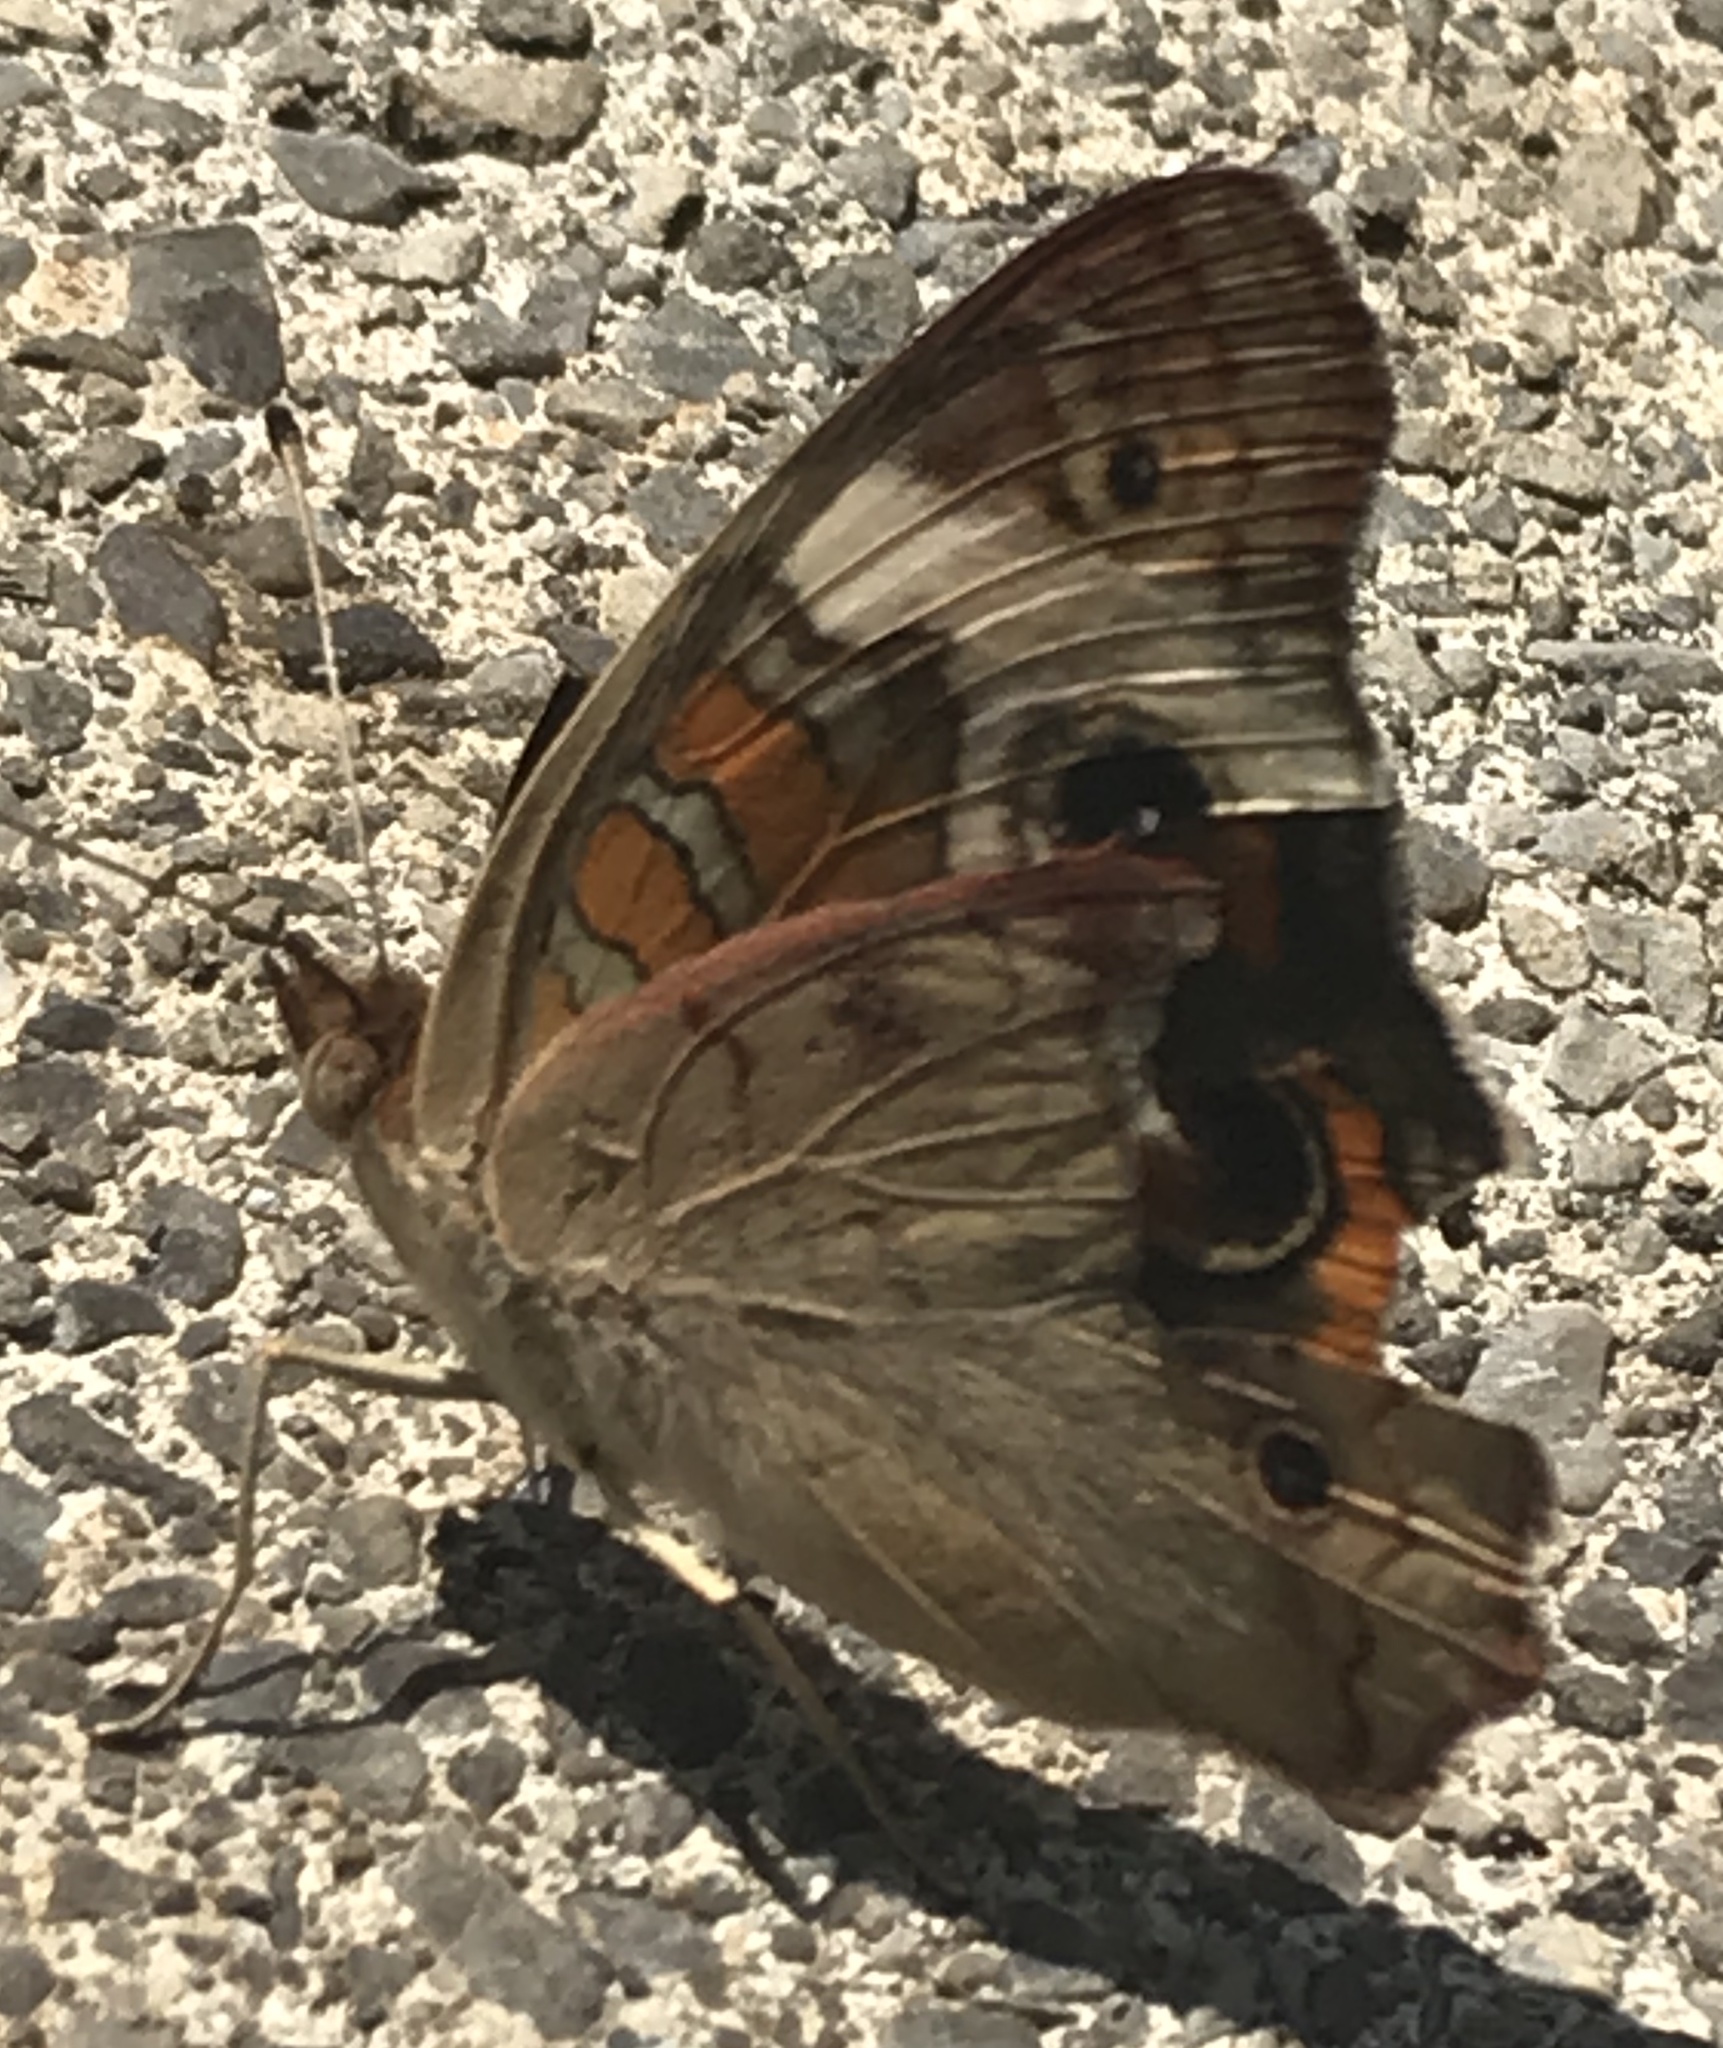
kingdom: Animalia
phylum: Arthropoda
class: Insecta
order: Lepidoptera
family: Nymphalidae
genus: Junonia
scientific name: Junonia coenia
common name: Common buckeye
